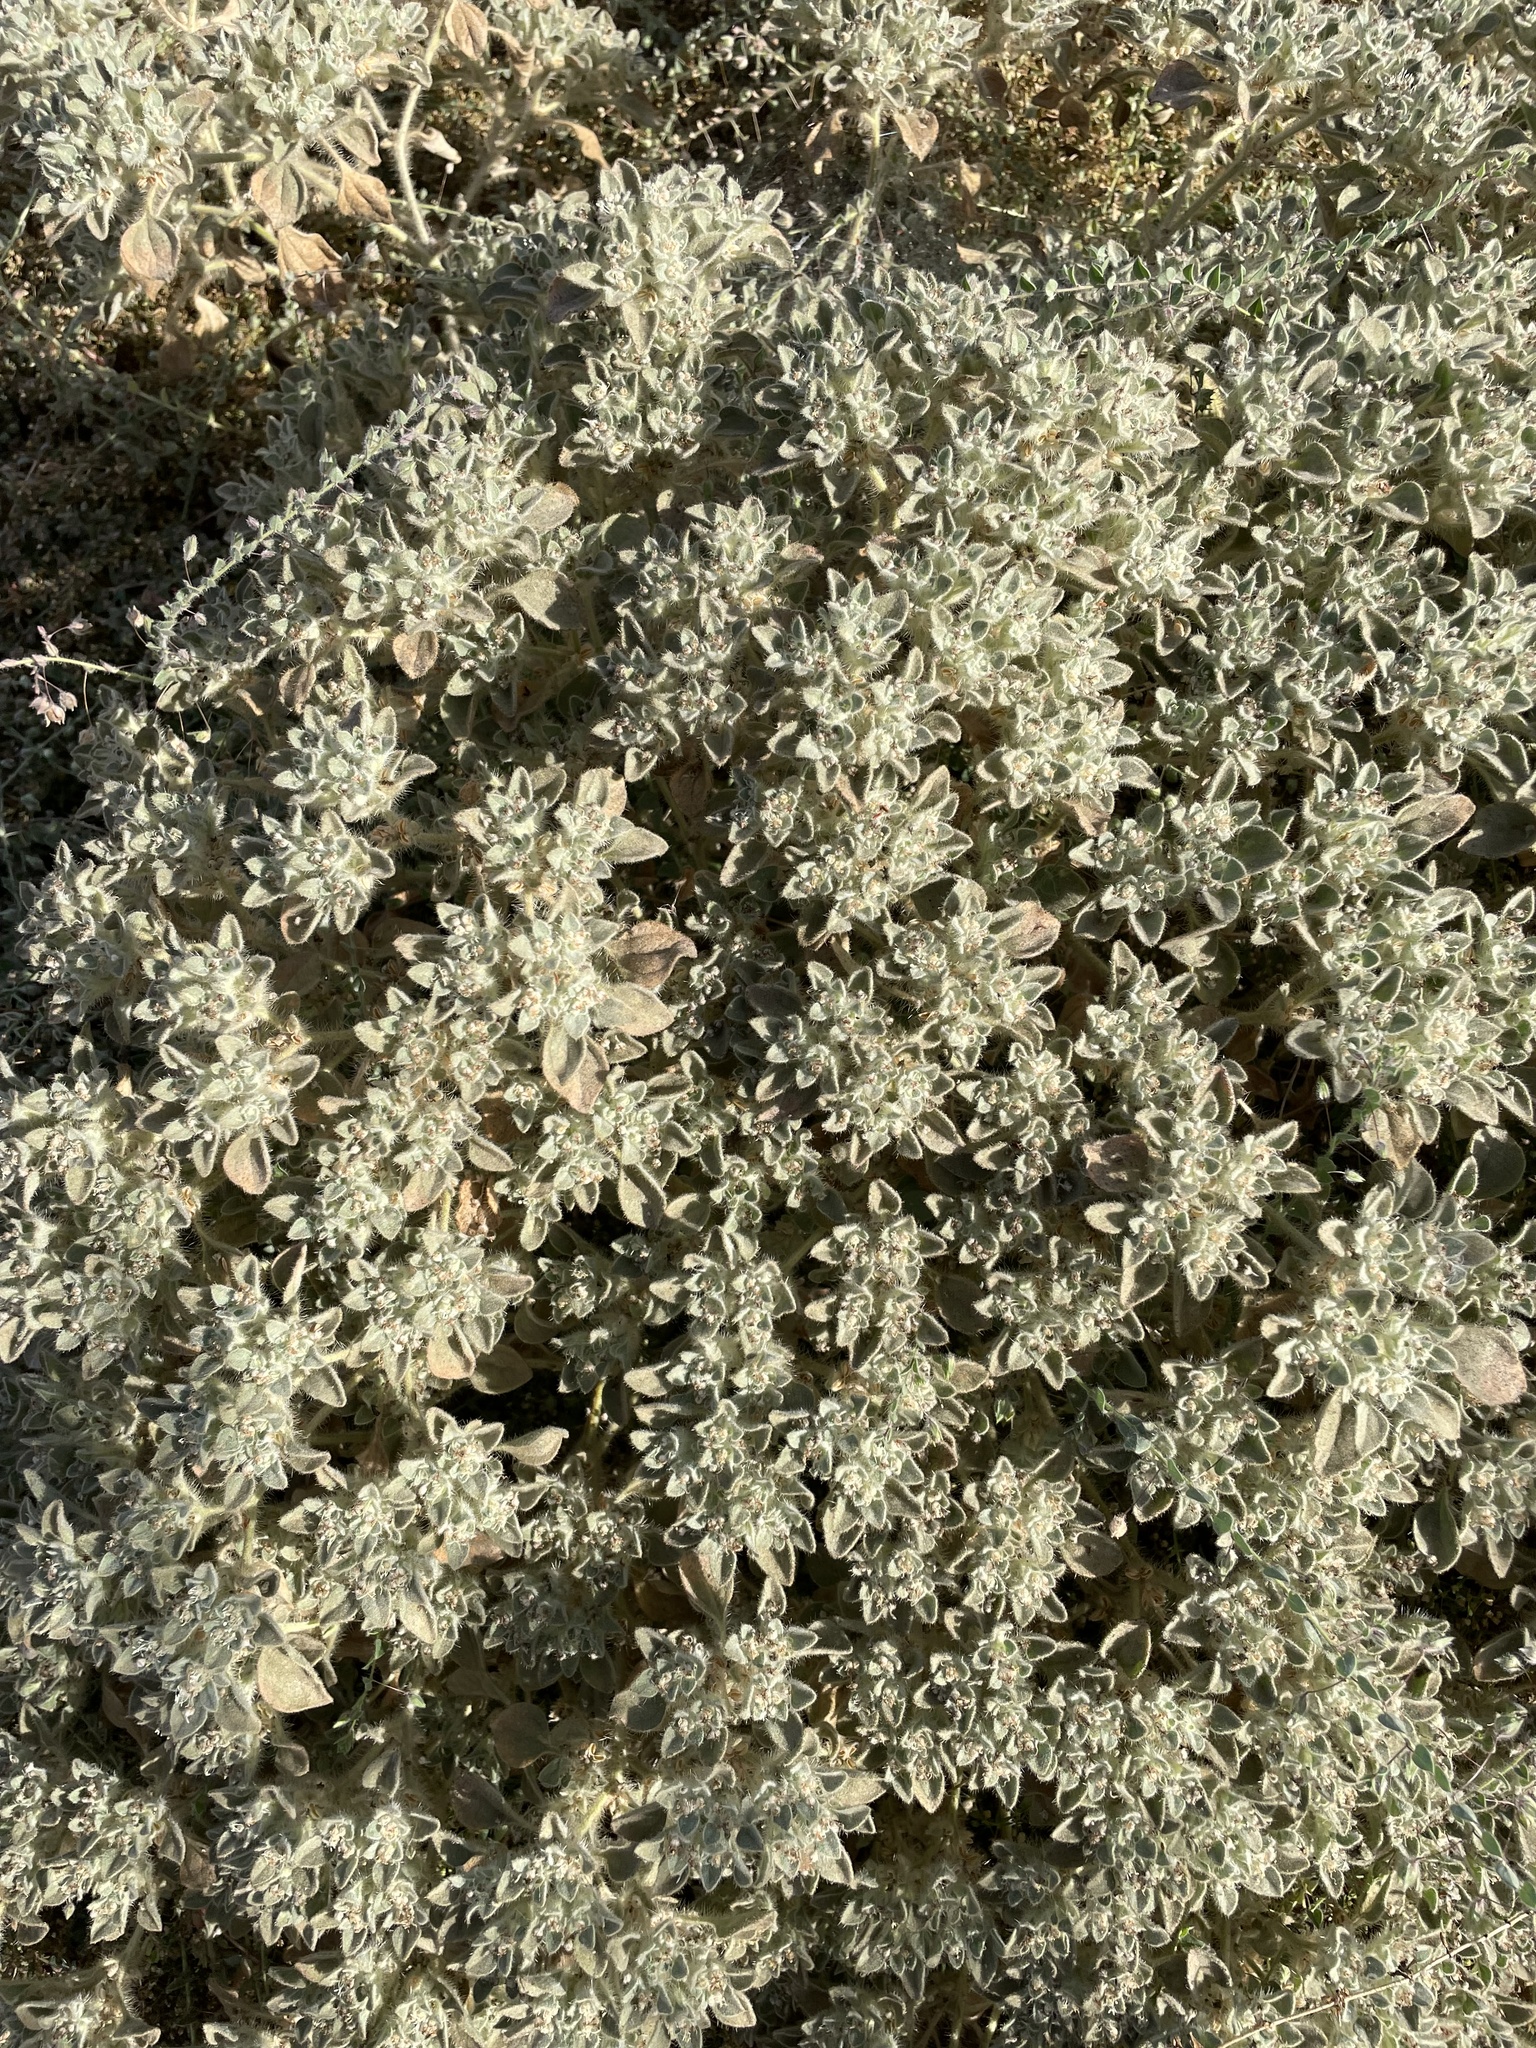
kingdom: Plantae
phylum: Tracheophyta
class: Magnoliopsida
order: Malpighiales
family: Euphorbiaceae
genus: Croton
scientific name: Croton setiger
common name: Dove weed
